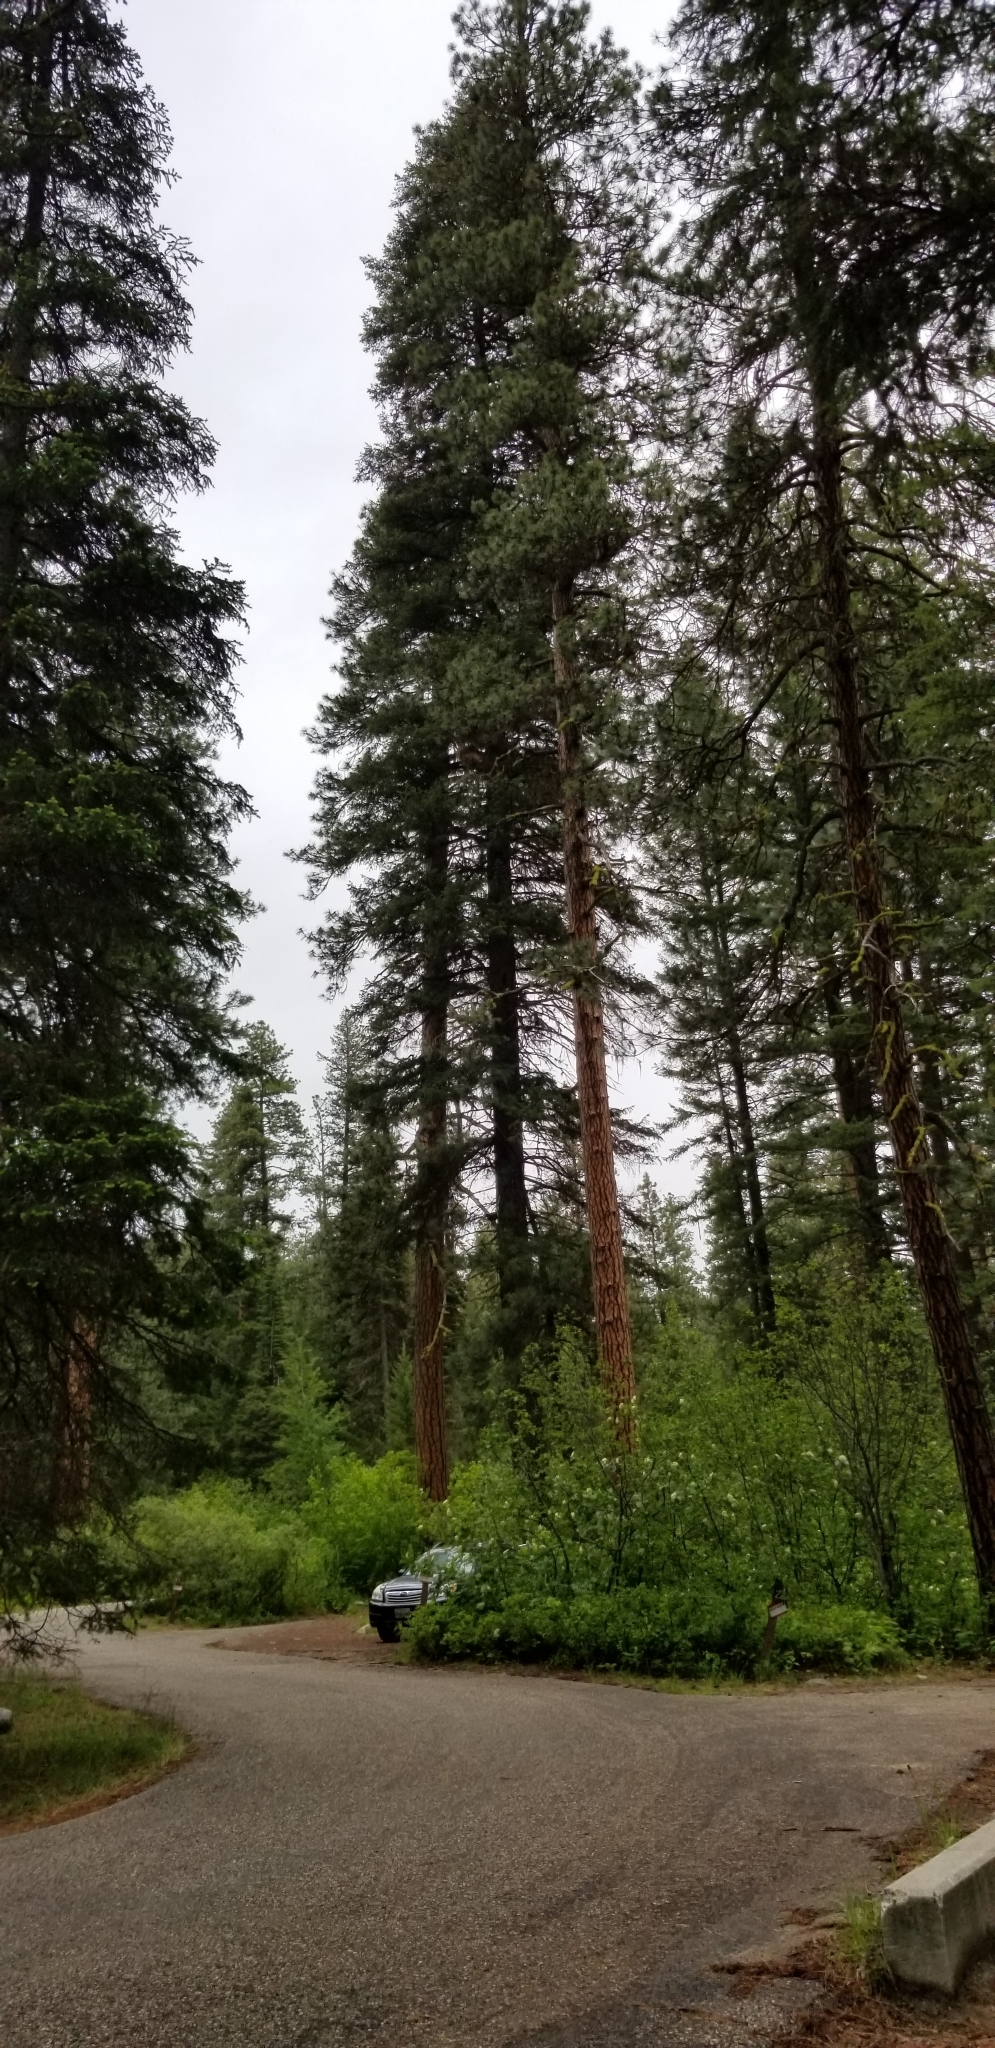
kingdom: Plantae
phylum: Tracheophyta
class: Pinopsida
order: Pinales
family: Pinaceae
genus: Pinus
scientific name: Pinus ponderosa
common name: Western yellow-pine
